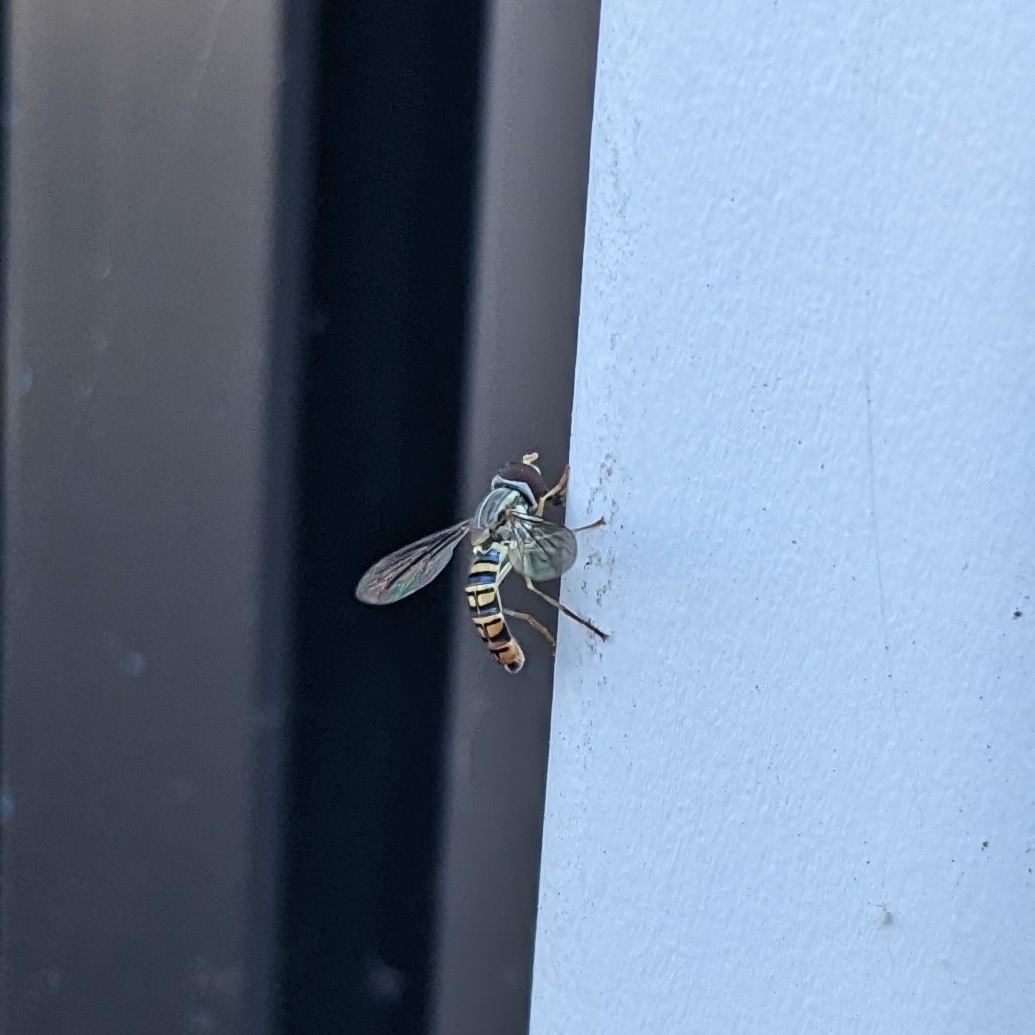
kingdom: Animalia
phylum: Arthropoda
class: Insecta
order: Diptera
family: Syrphidae
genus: Toxomerus
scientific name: Toxomerus politus
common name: Maize calligrapher
